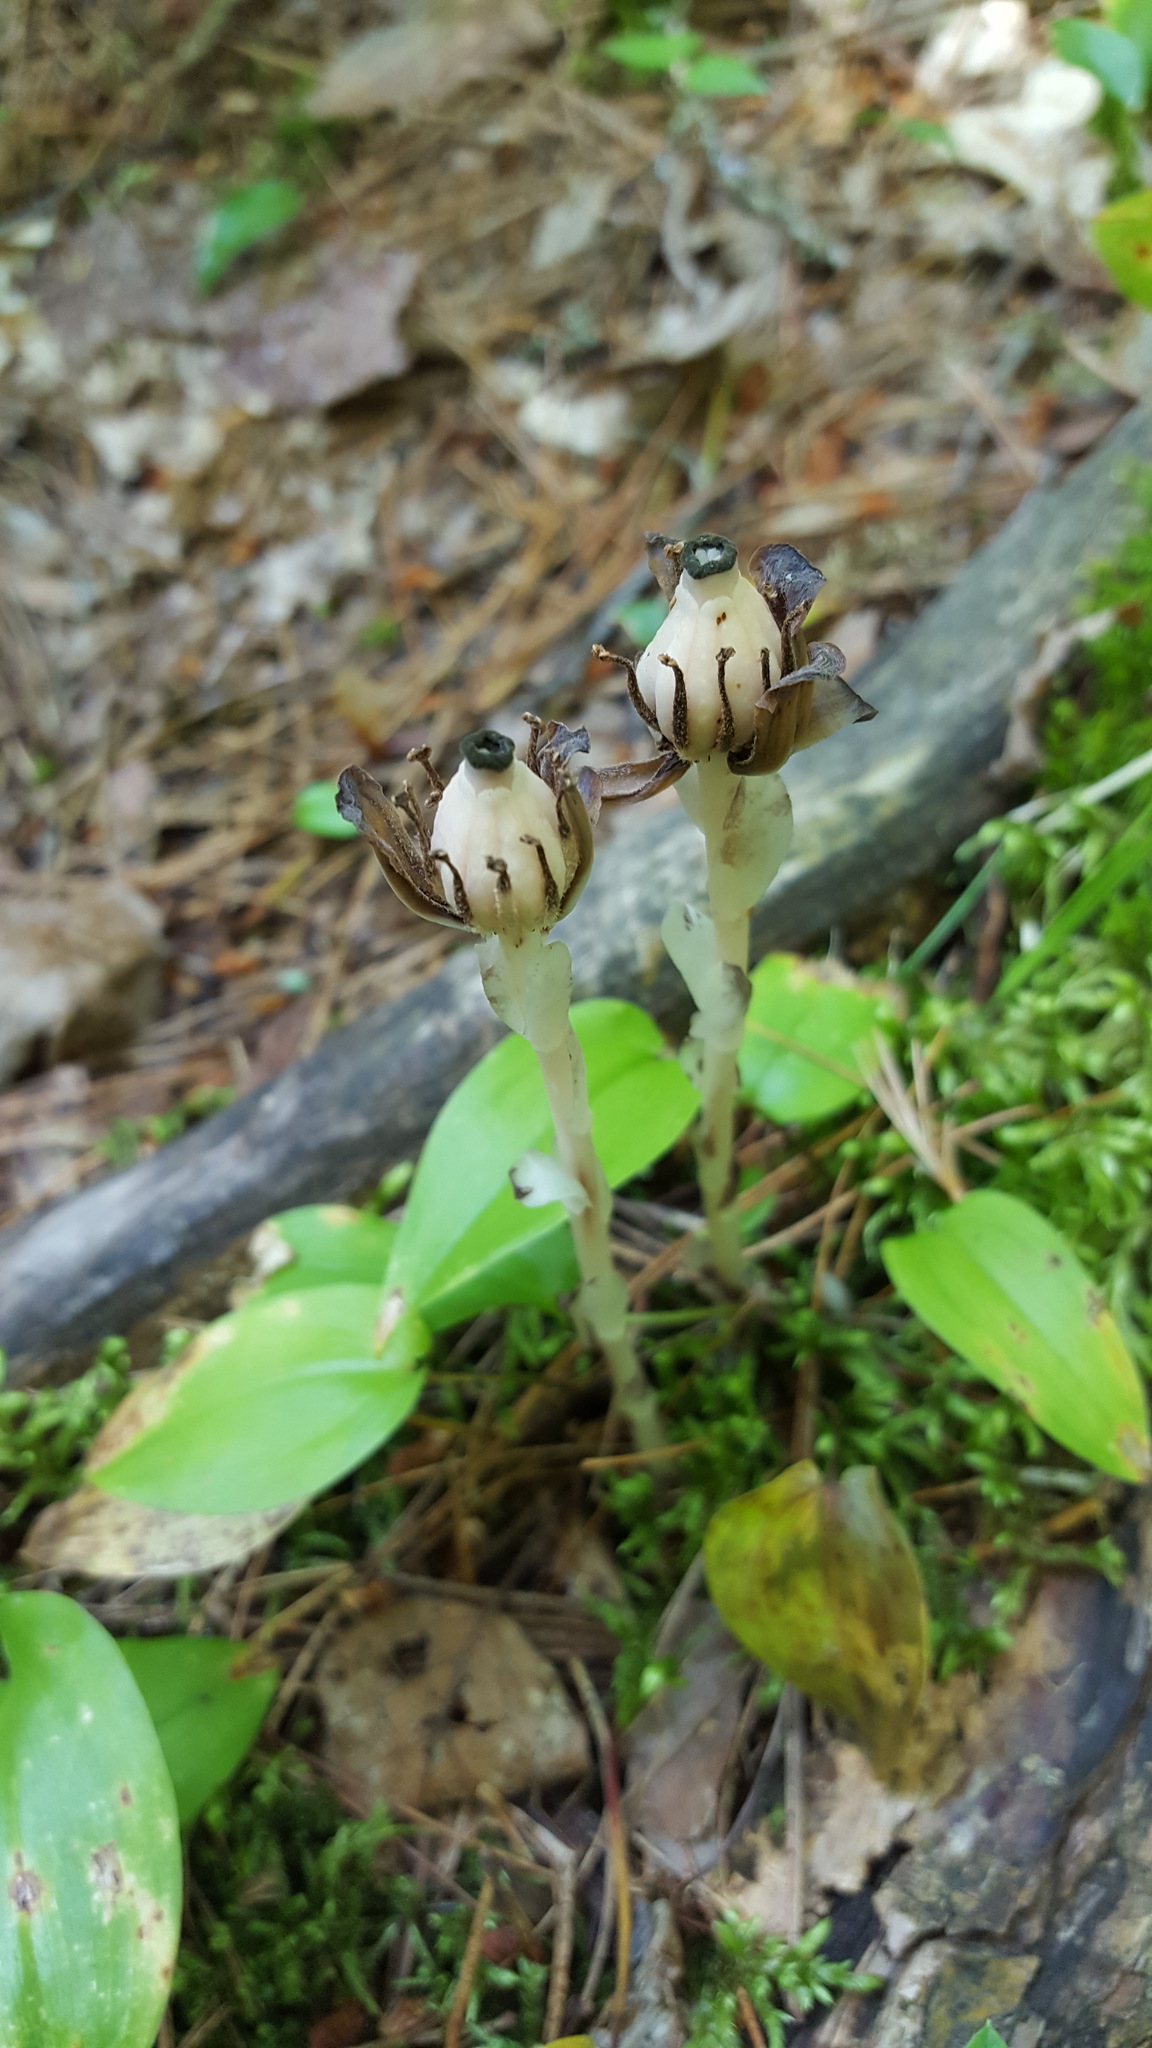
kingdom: Plantae
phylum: Tracheophyta
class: Magnoliopsida
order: Ericales
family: Ericaceae
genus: Monotropa
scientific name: Monotropa uniflora
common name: Convulsion root
